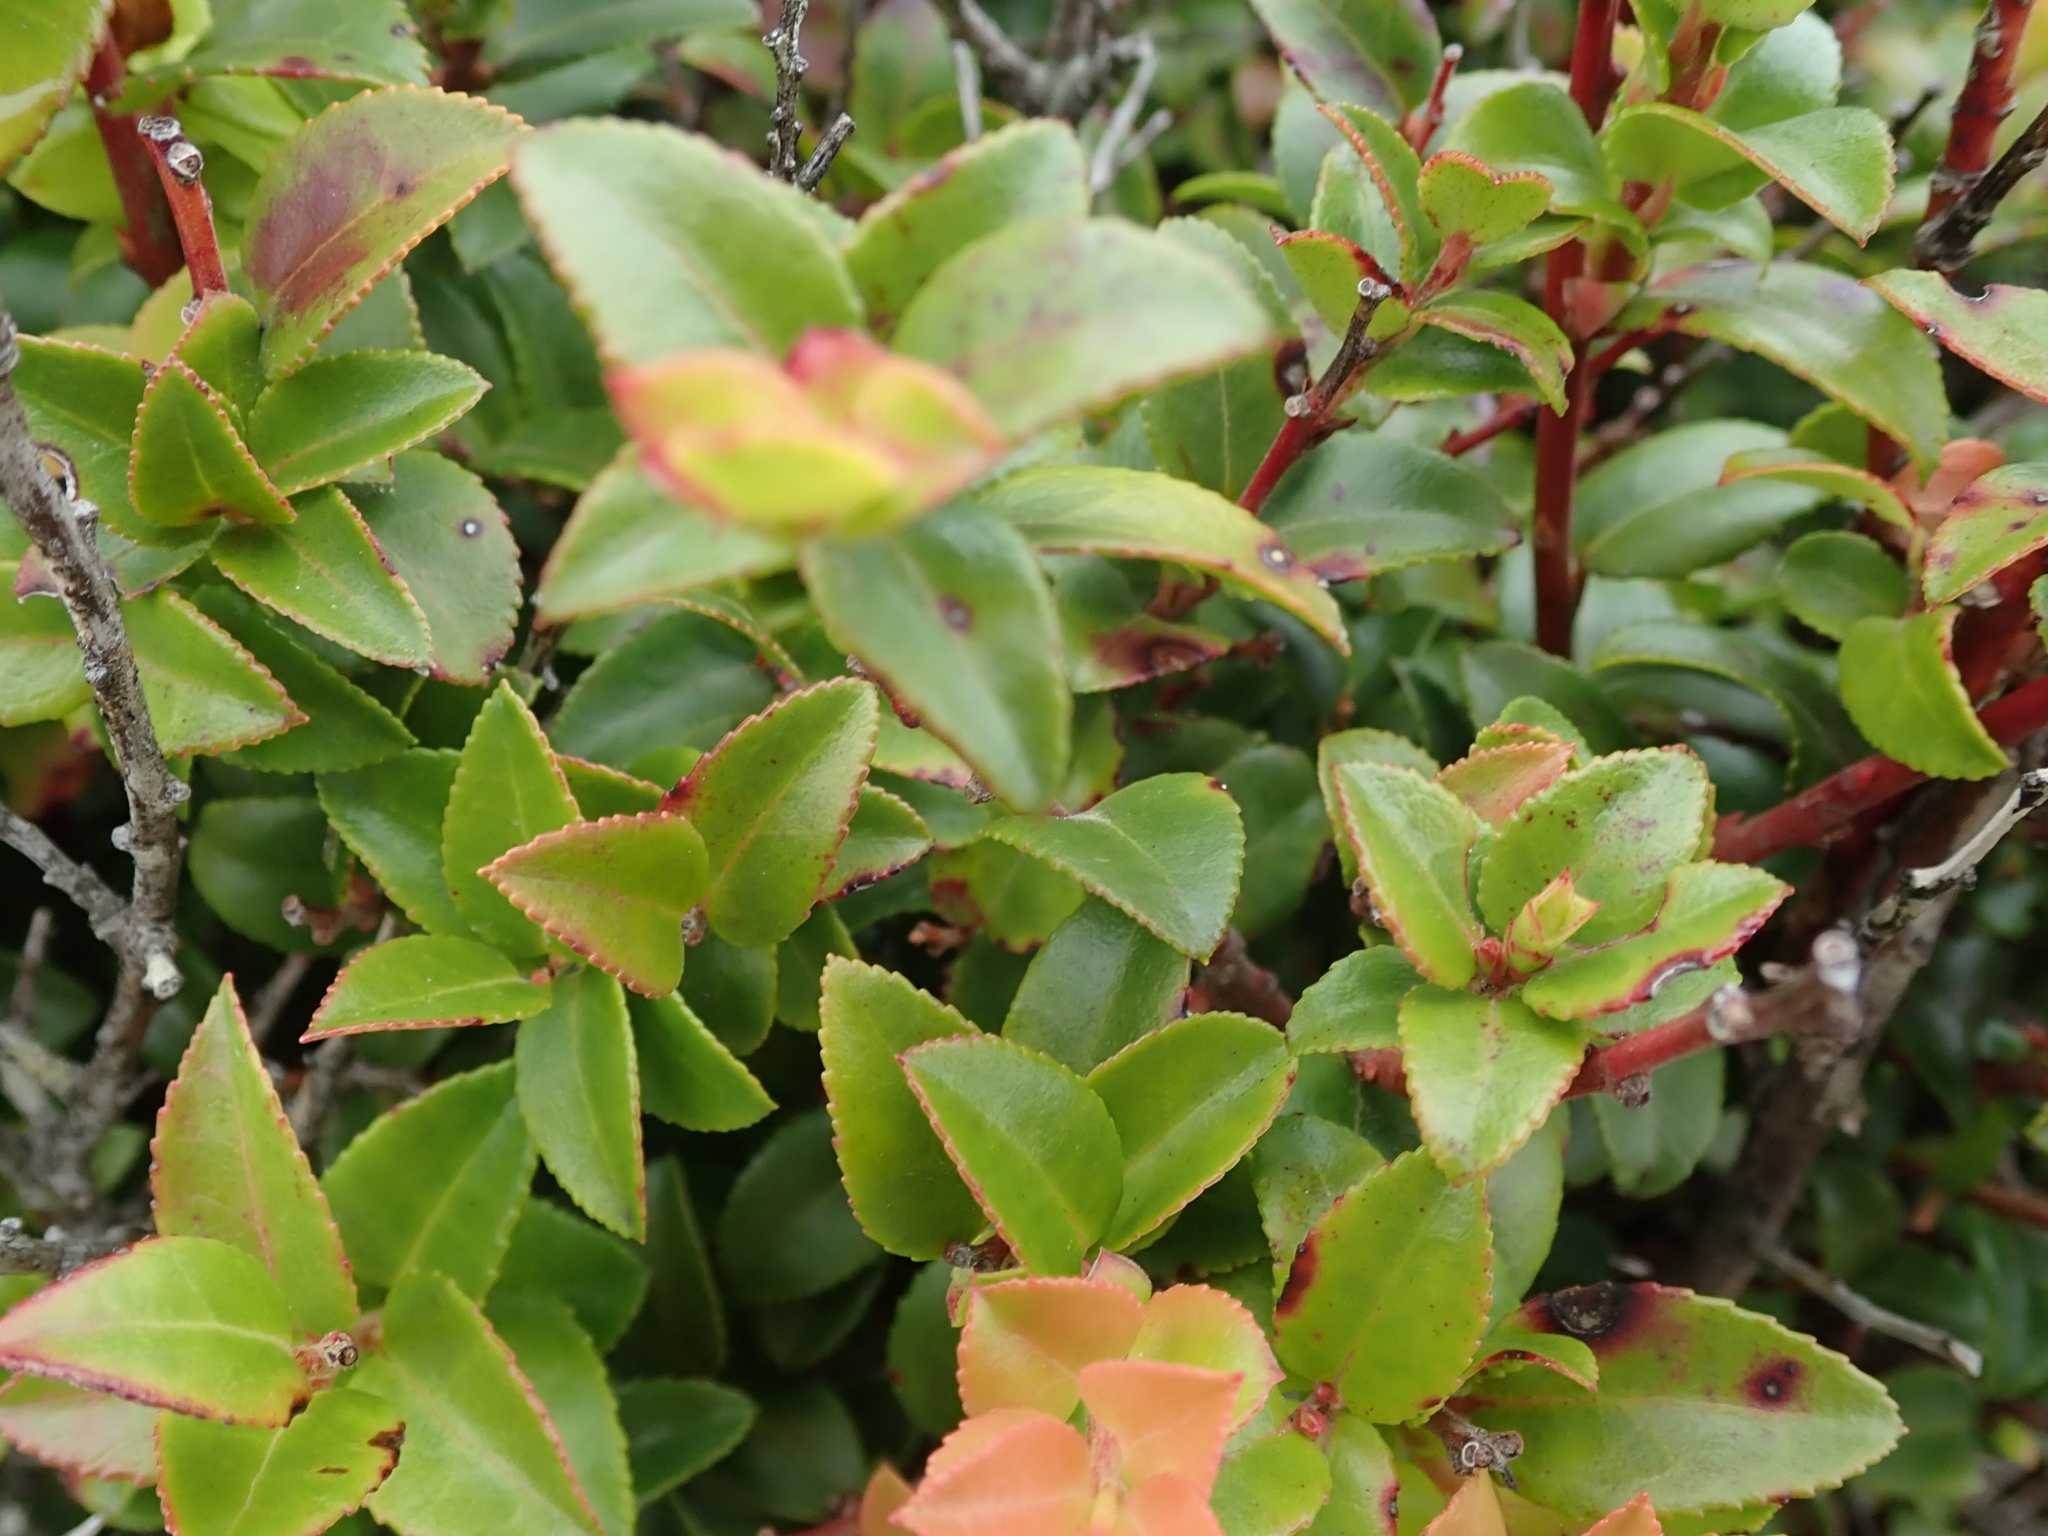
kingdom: Plantae
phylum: Tracheophyta
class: Magnoliopsida
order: Ericales
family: Ericaceae
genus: Vaccinium
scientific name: Vaccinium ovatum
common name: California-huckleberry
